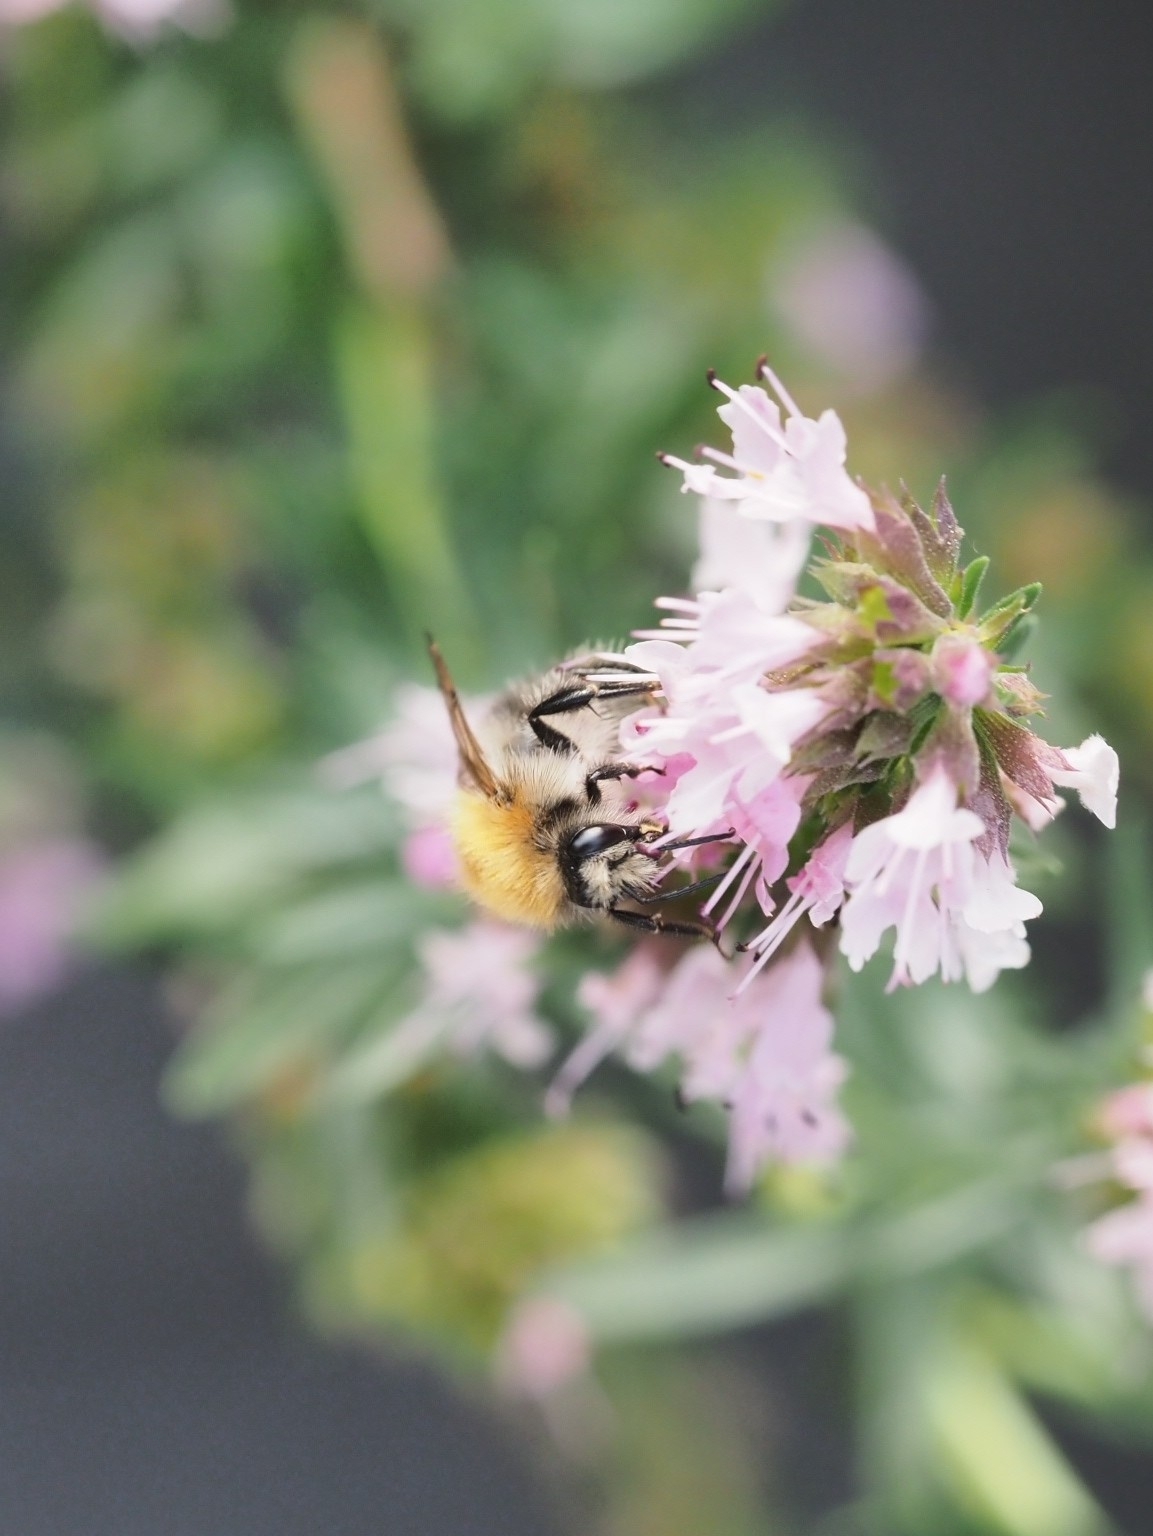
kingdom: Animalia
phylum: Arthropoda
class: Insecta
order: Hymenoptera
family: Apidae
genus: Bombus
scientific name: Bombus pascuorum
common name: Common carder bee
